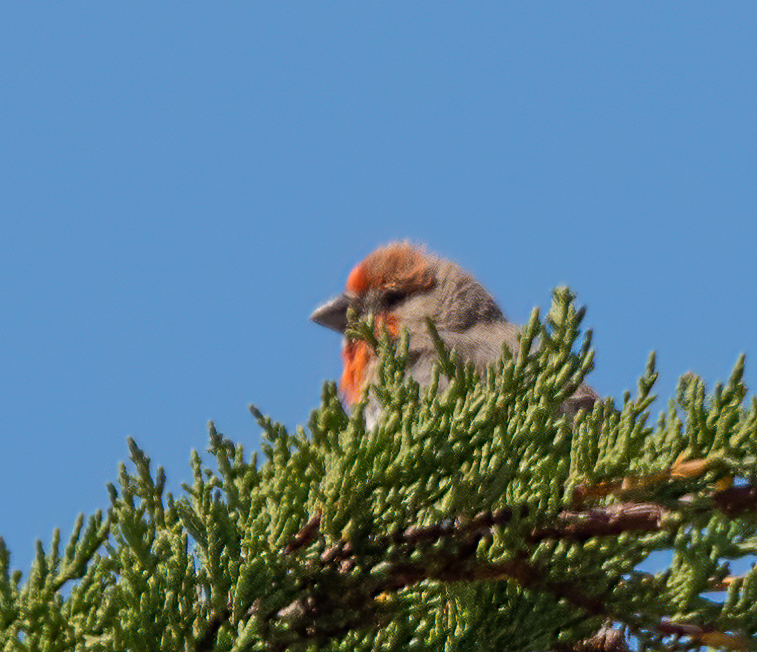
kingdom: Animalia
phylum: Chordata
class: Aves
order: Passeriformes
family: Fringillidae
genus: Haemorhous
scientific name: Haemorhous mexicanus
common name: House finch
